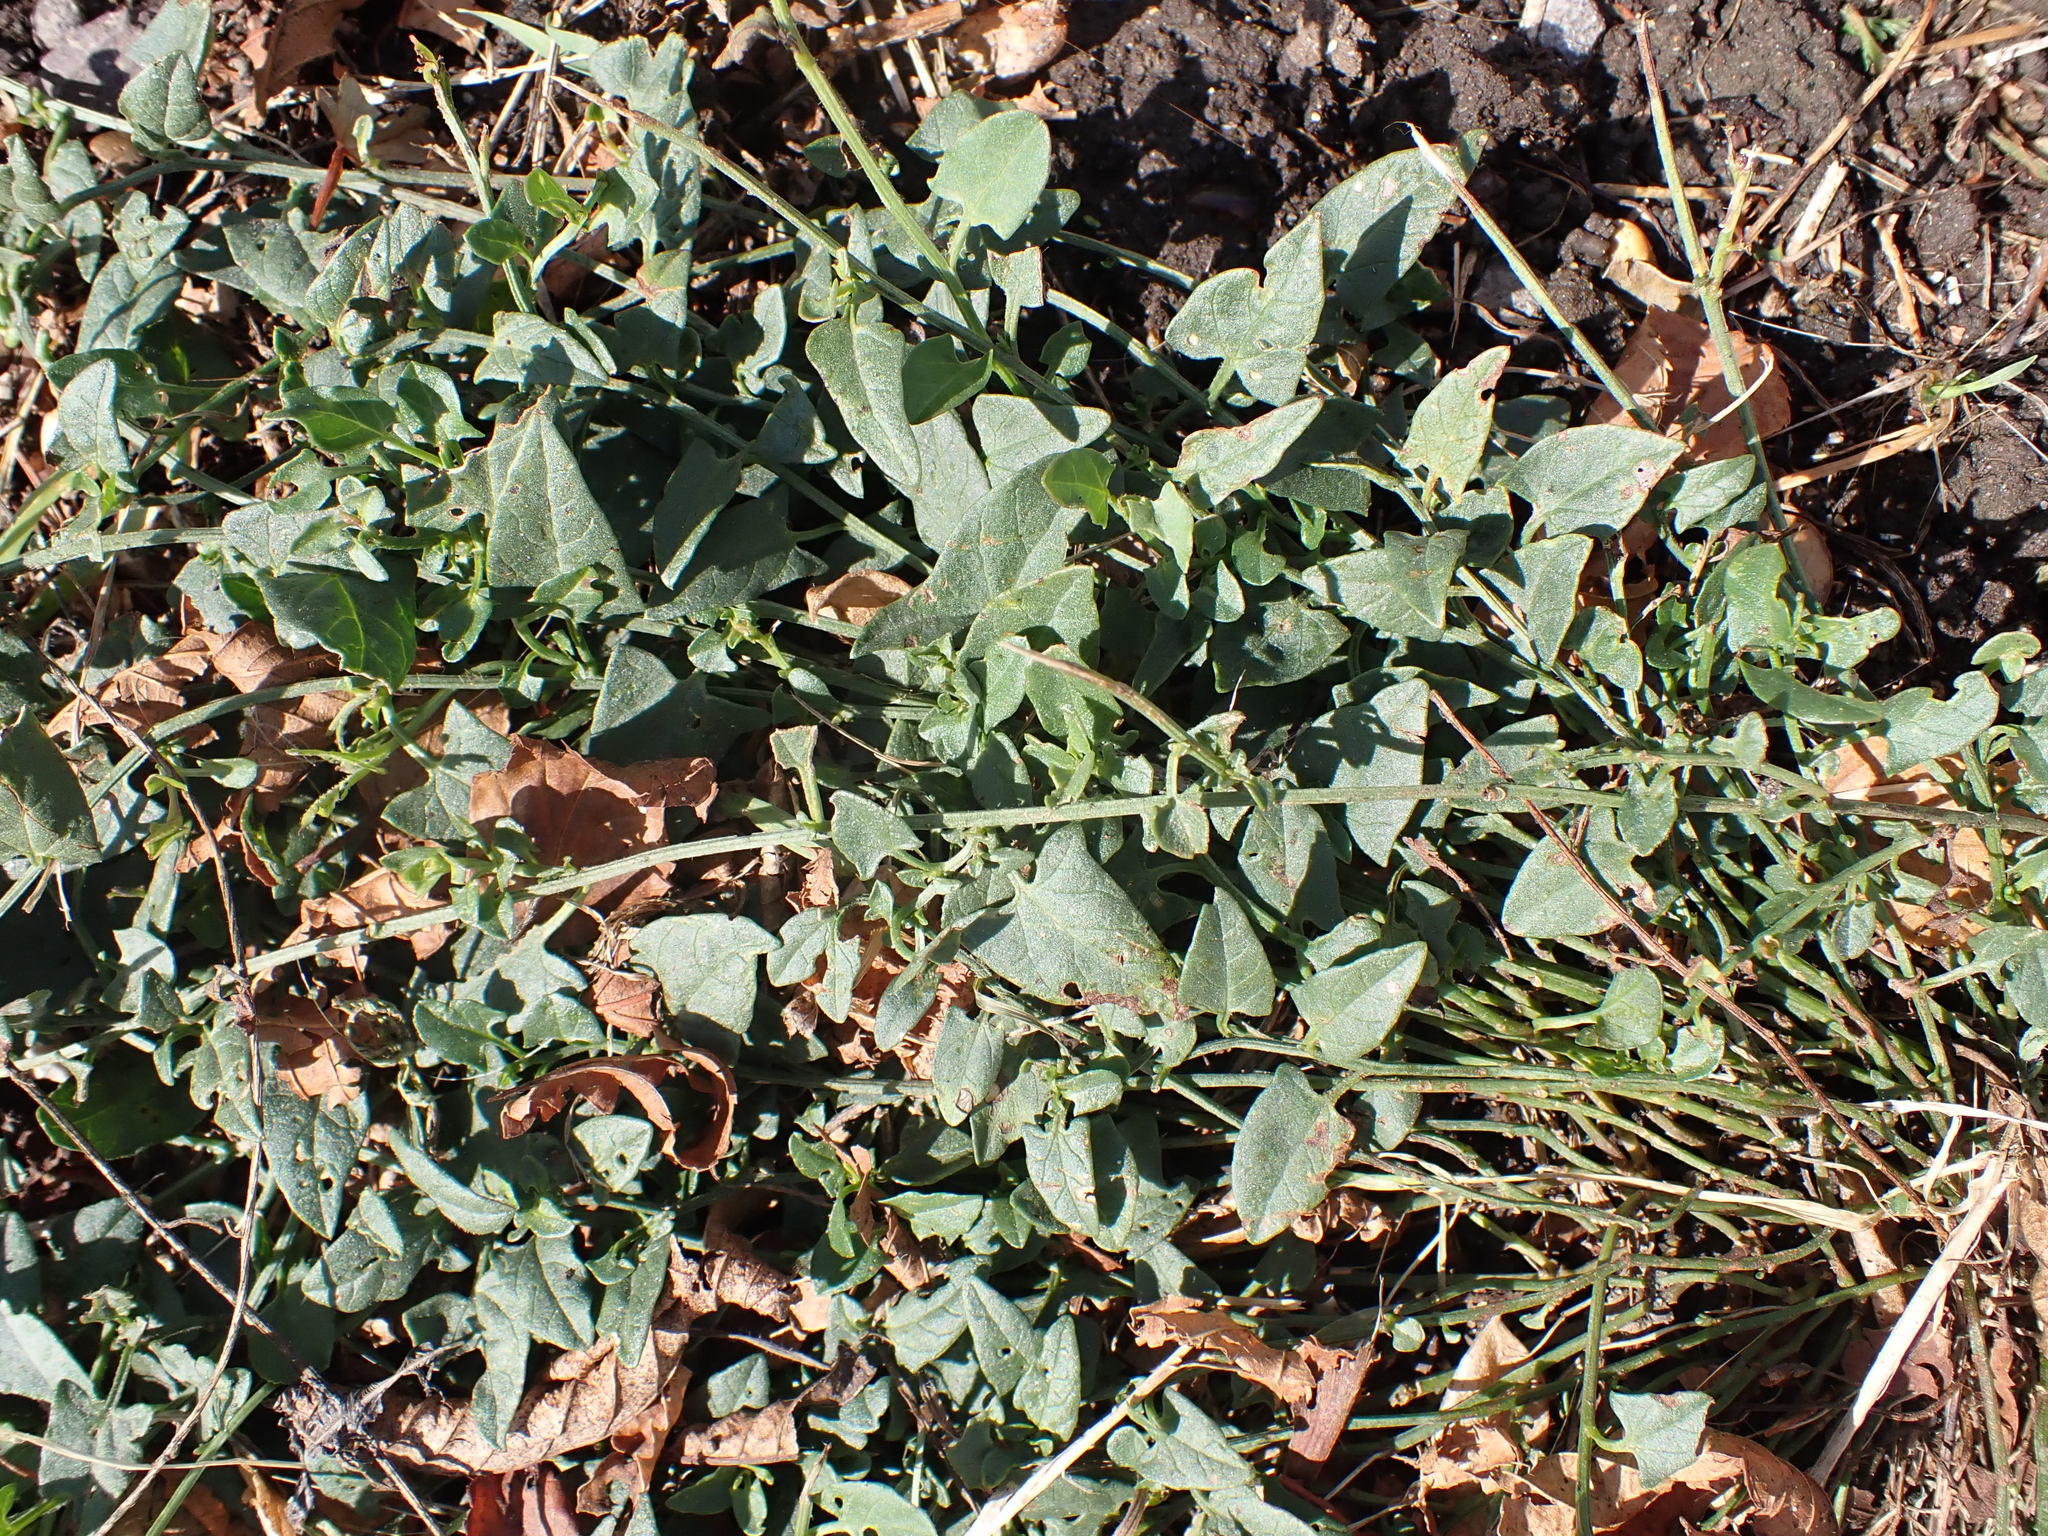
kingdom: Plantae
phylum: Tracheophyta
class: Magnoliopsida
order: Solanales
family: Convolvulaceae
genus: Convolvulus
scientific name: Convolvulus arvensis
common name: Field bindweed
